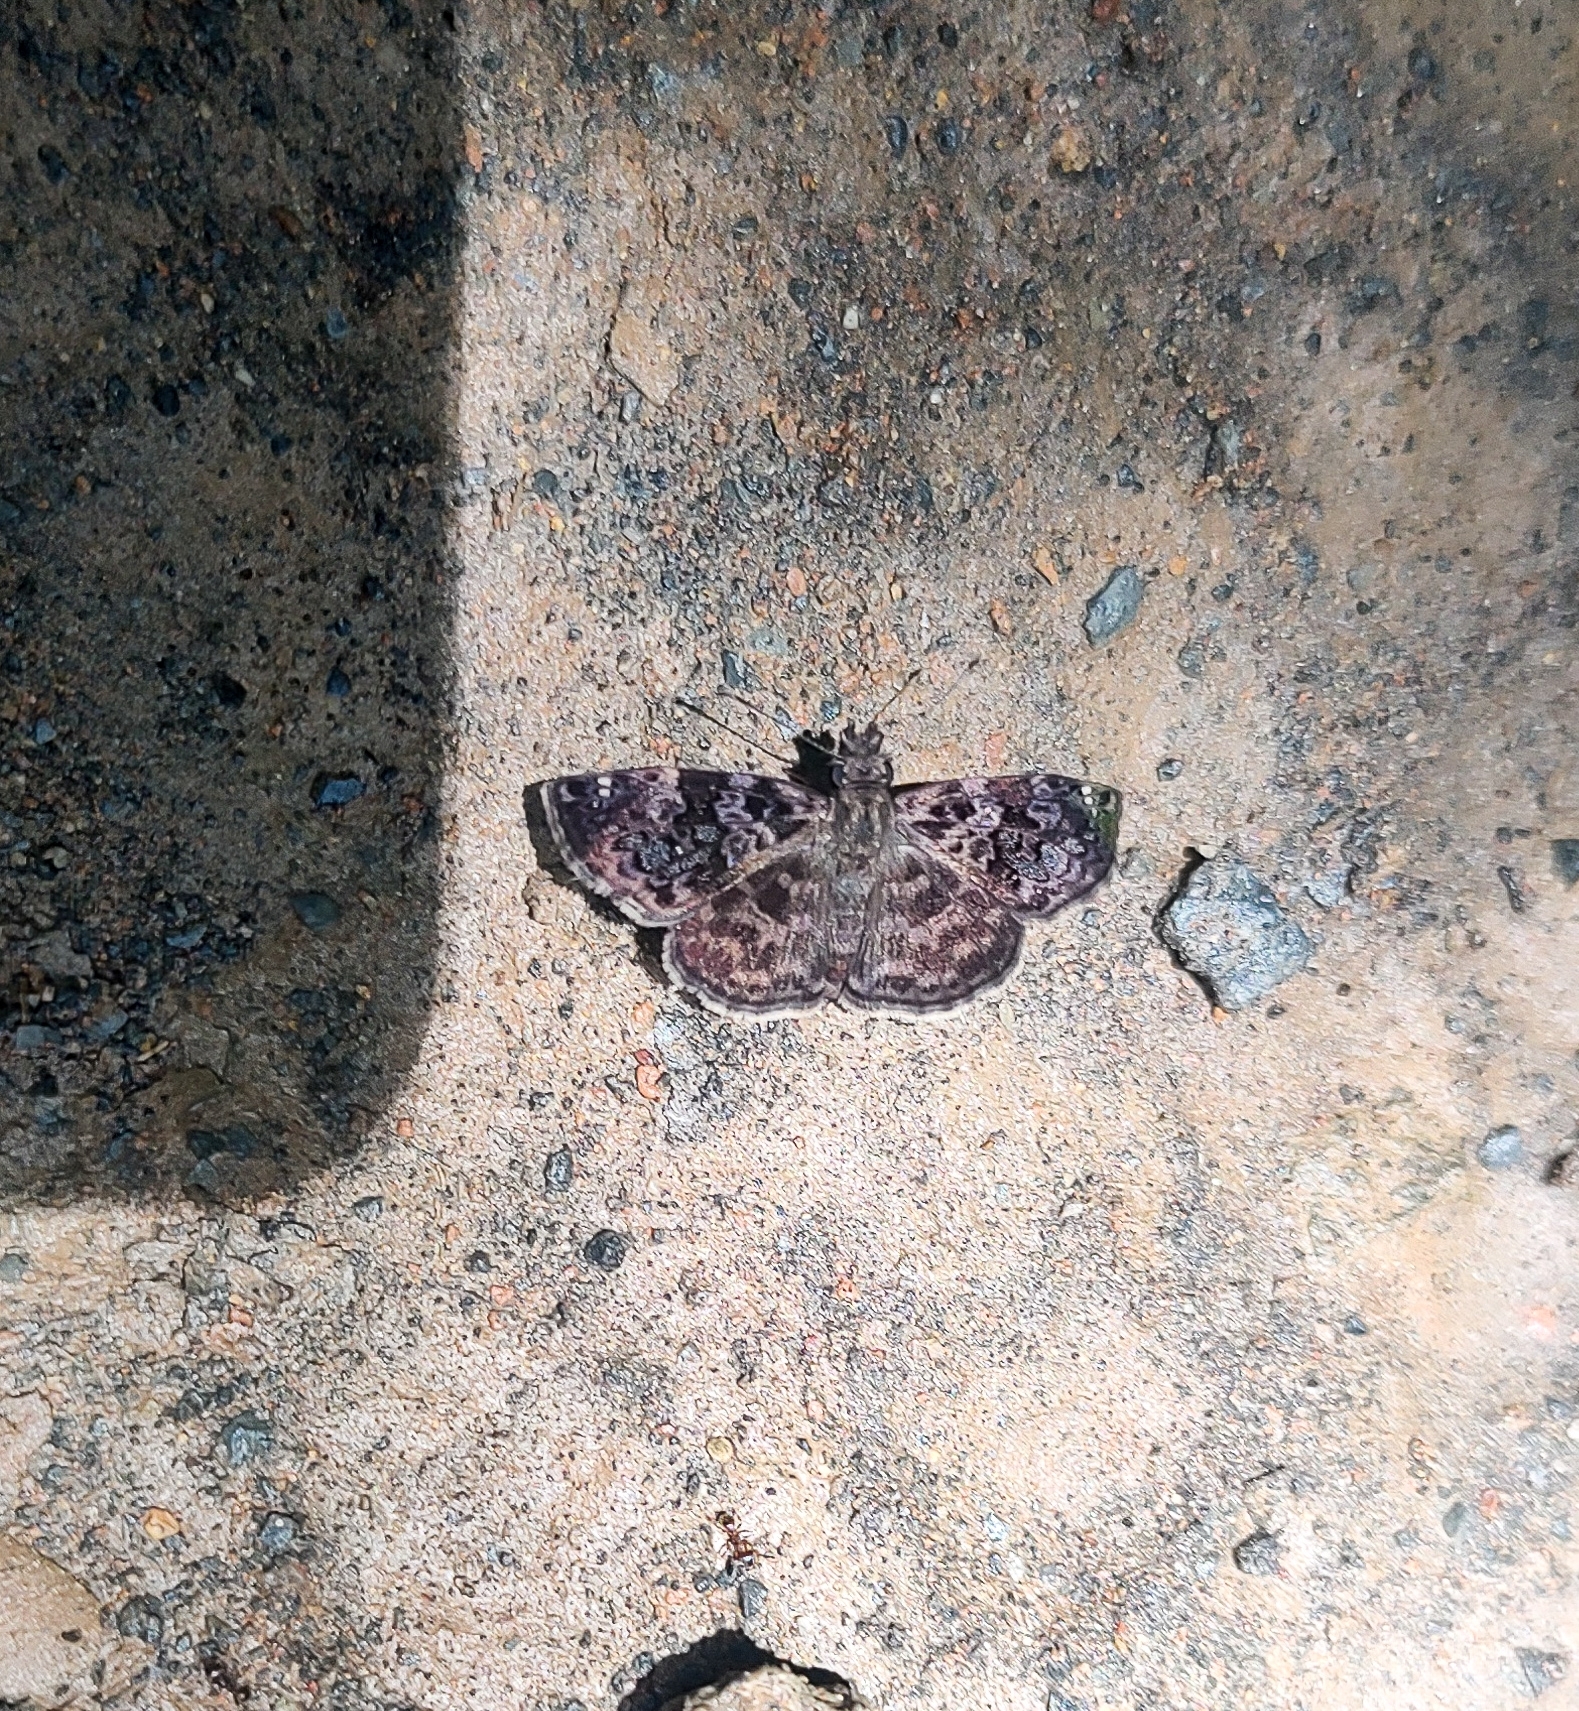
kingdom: Animalia
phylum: Arthropoda
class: Insecta
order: Lepidoptera
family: Hesperiidae
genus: Ebrietas
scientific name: Ebrietas anacreon
